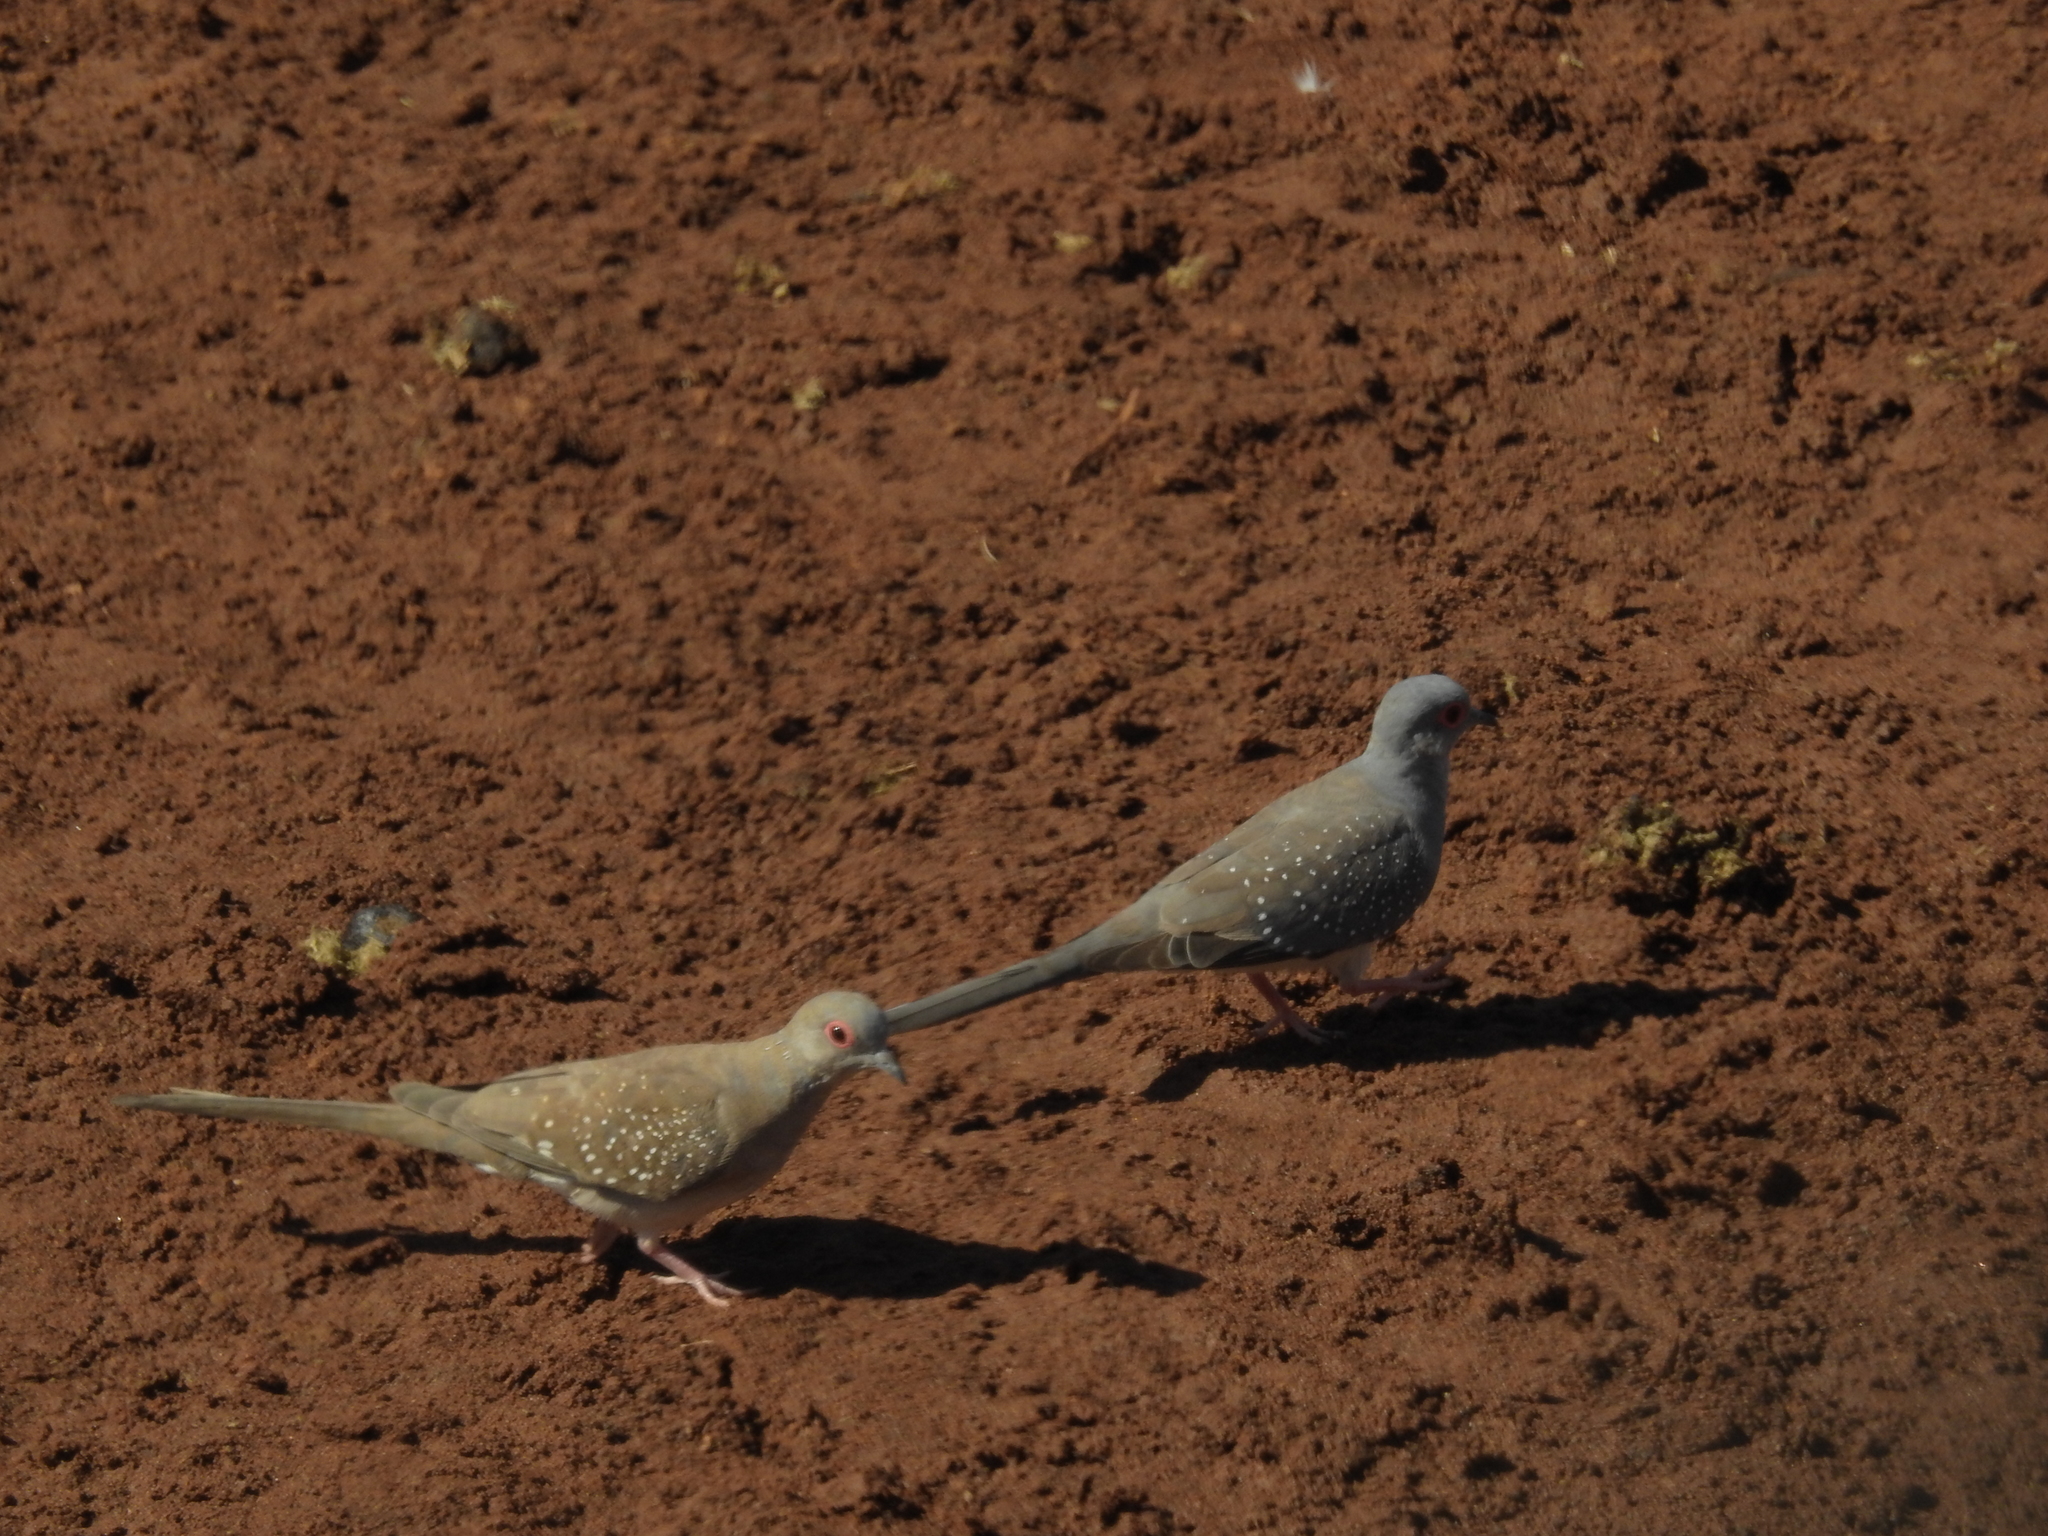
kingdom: Animalia
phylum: Chordata
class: Aves
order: Columbiformes
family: Columbidae
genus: Geopelia
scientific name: Geopelia cuneata
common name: Diamond dove
